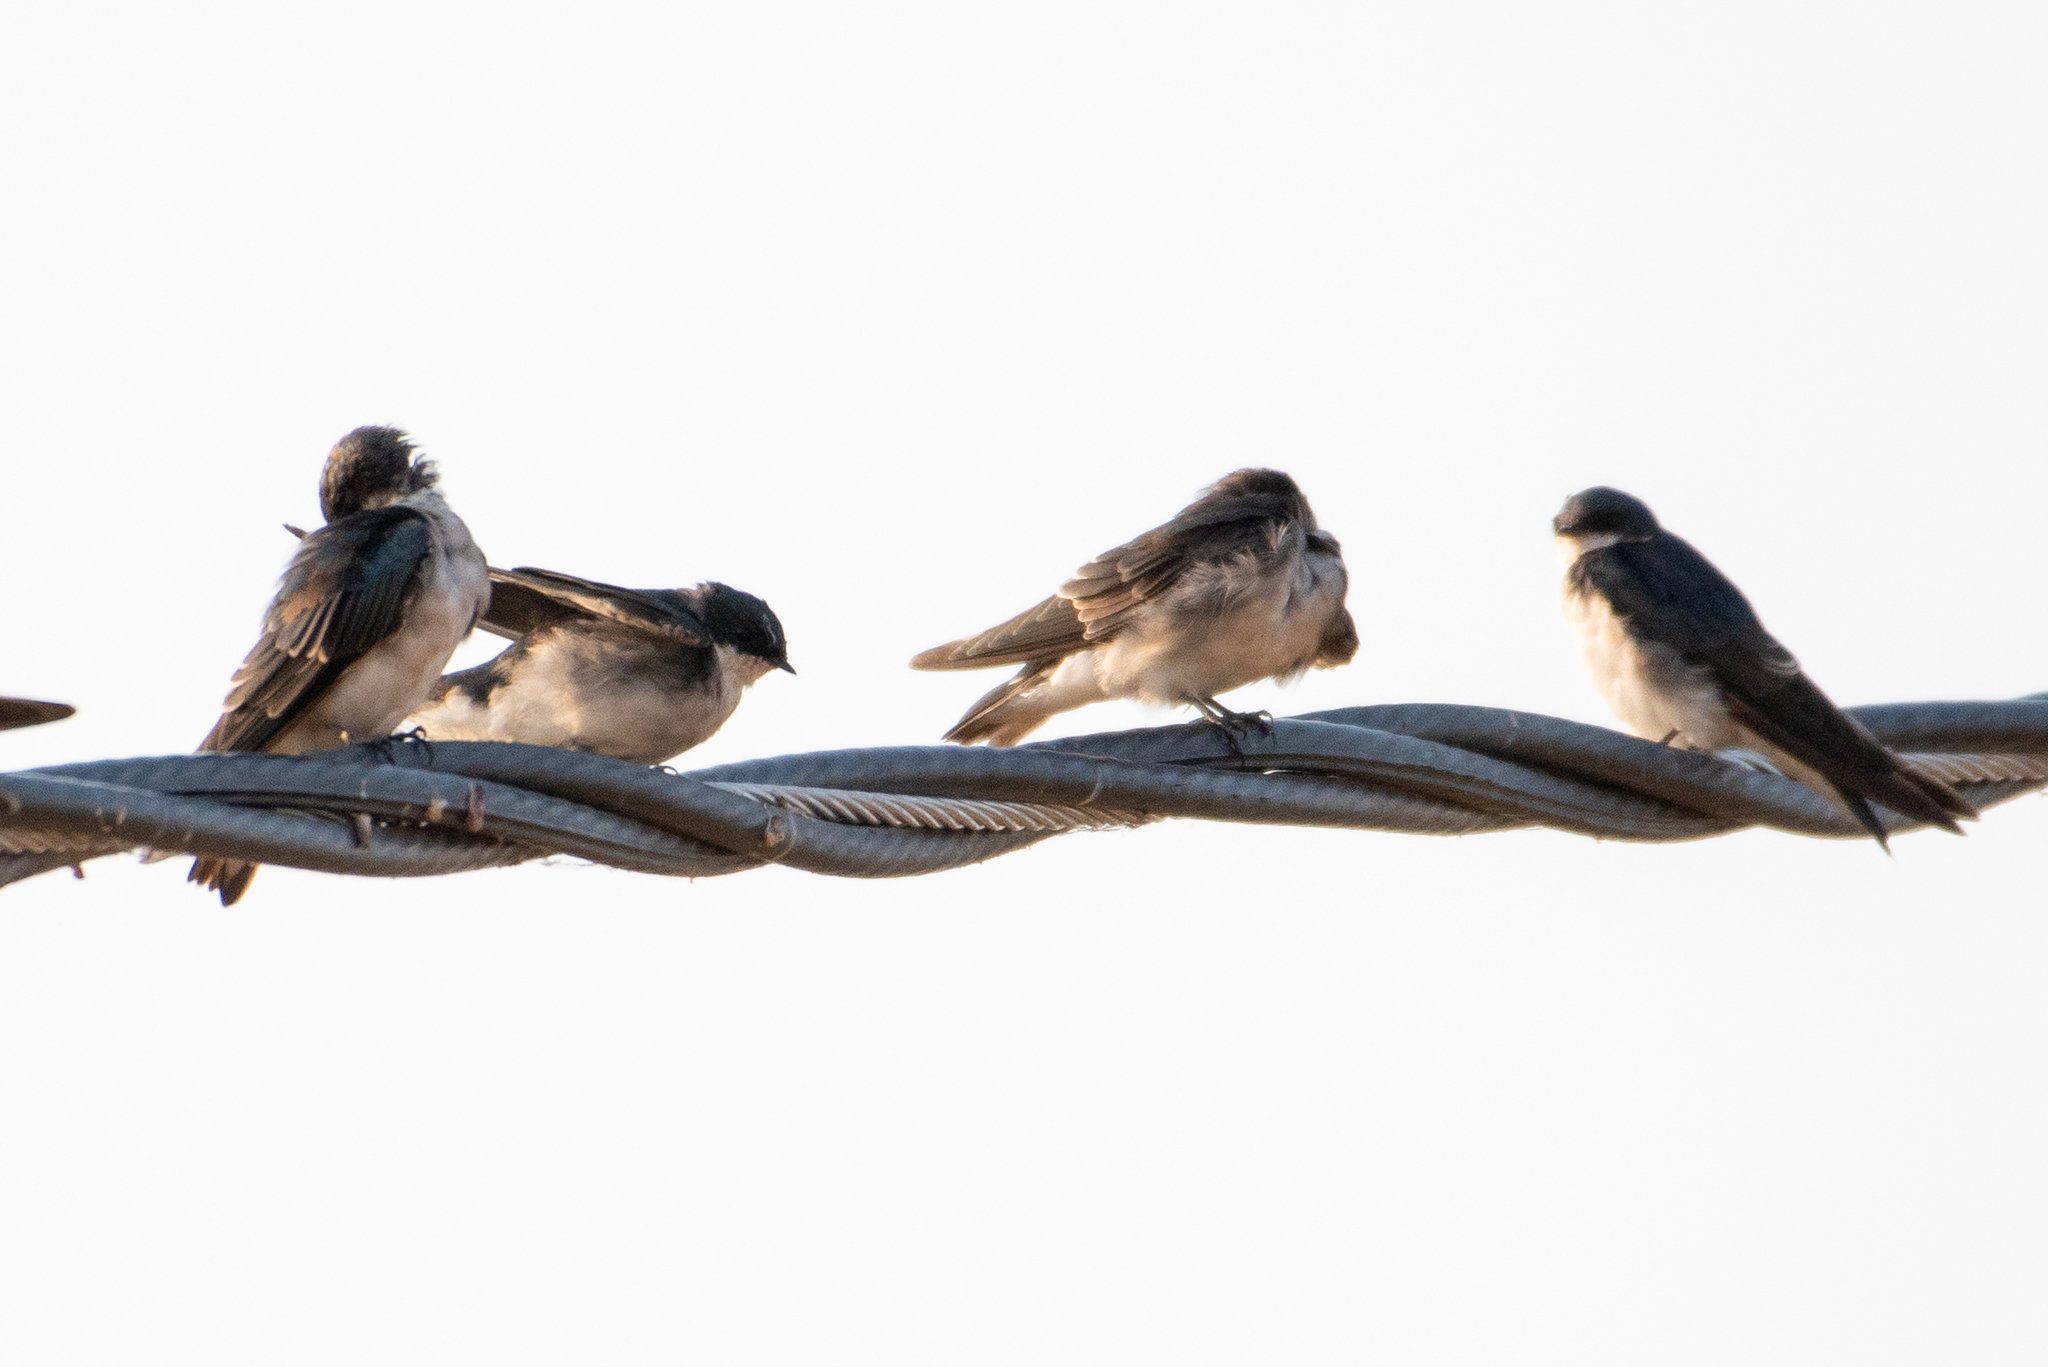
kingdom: Animalia
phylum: Chordata
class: Aves
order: Passeriformes
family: Hirundinidae
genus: Tachycineta
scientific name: Tachycineta bicolor
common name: Tree swallow
